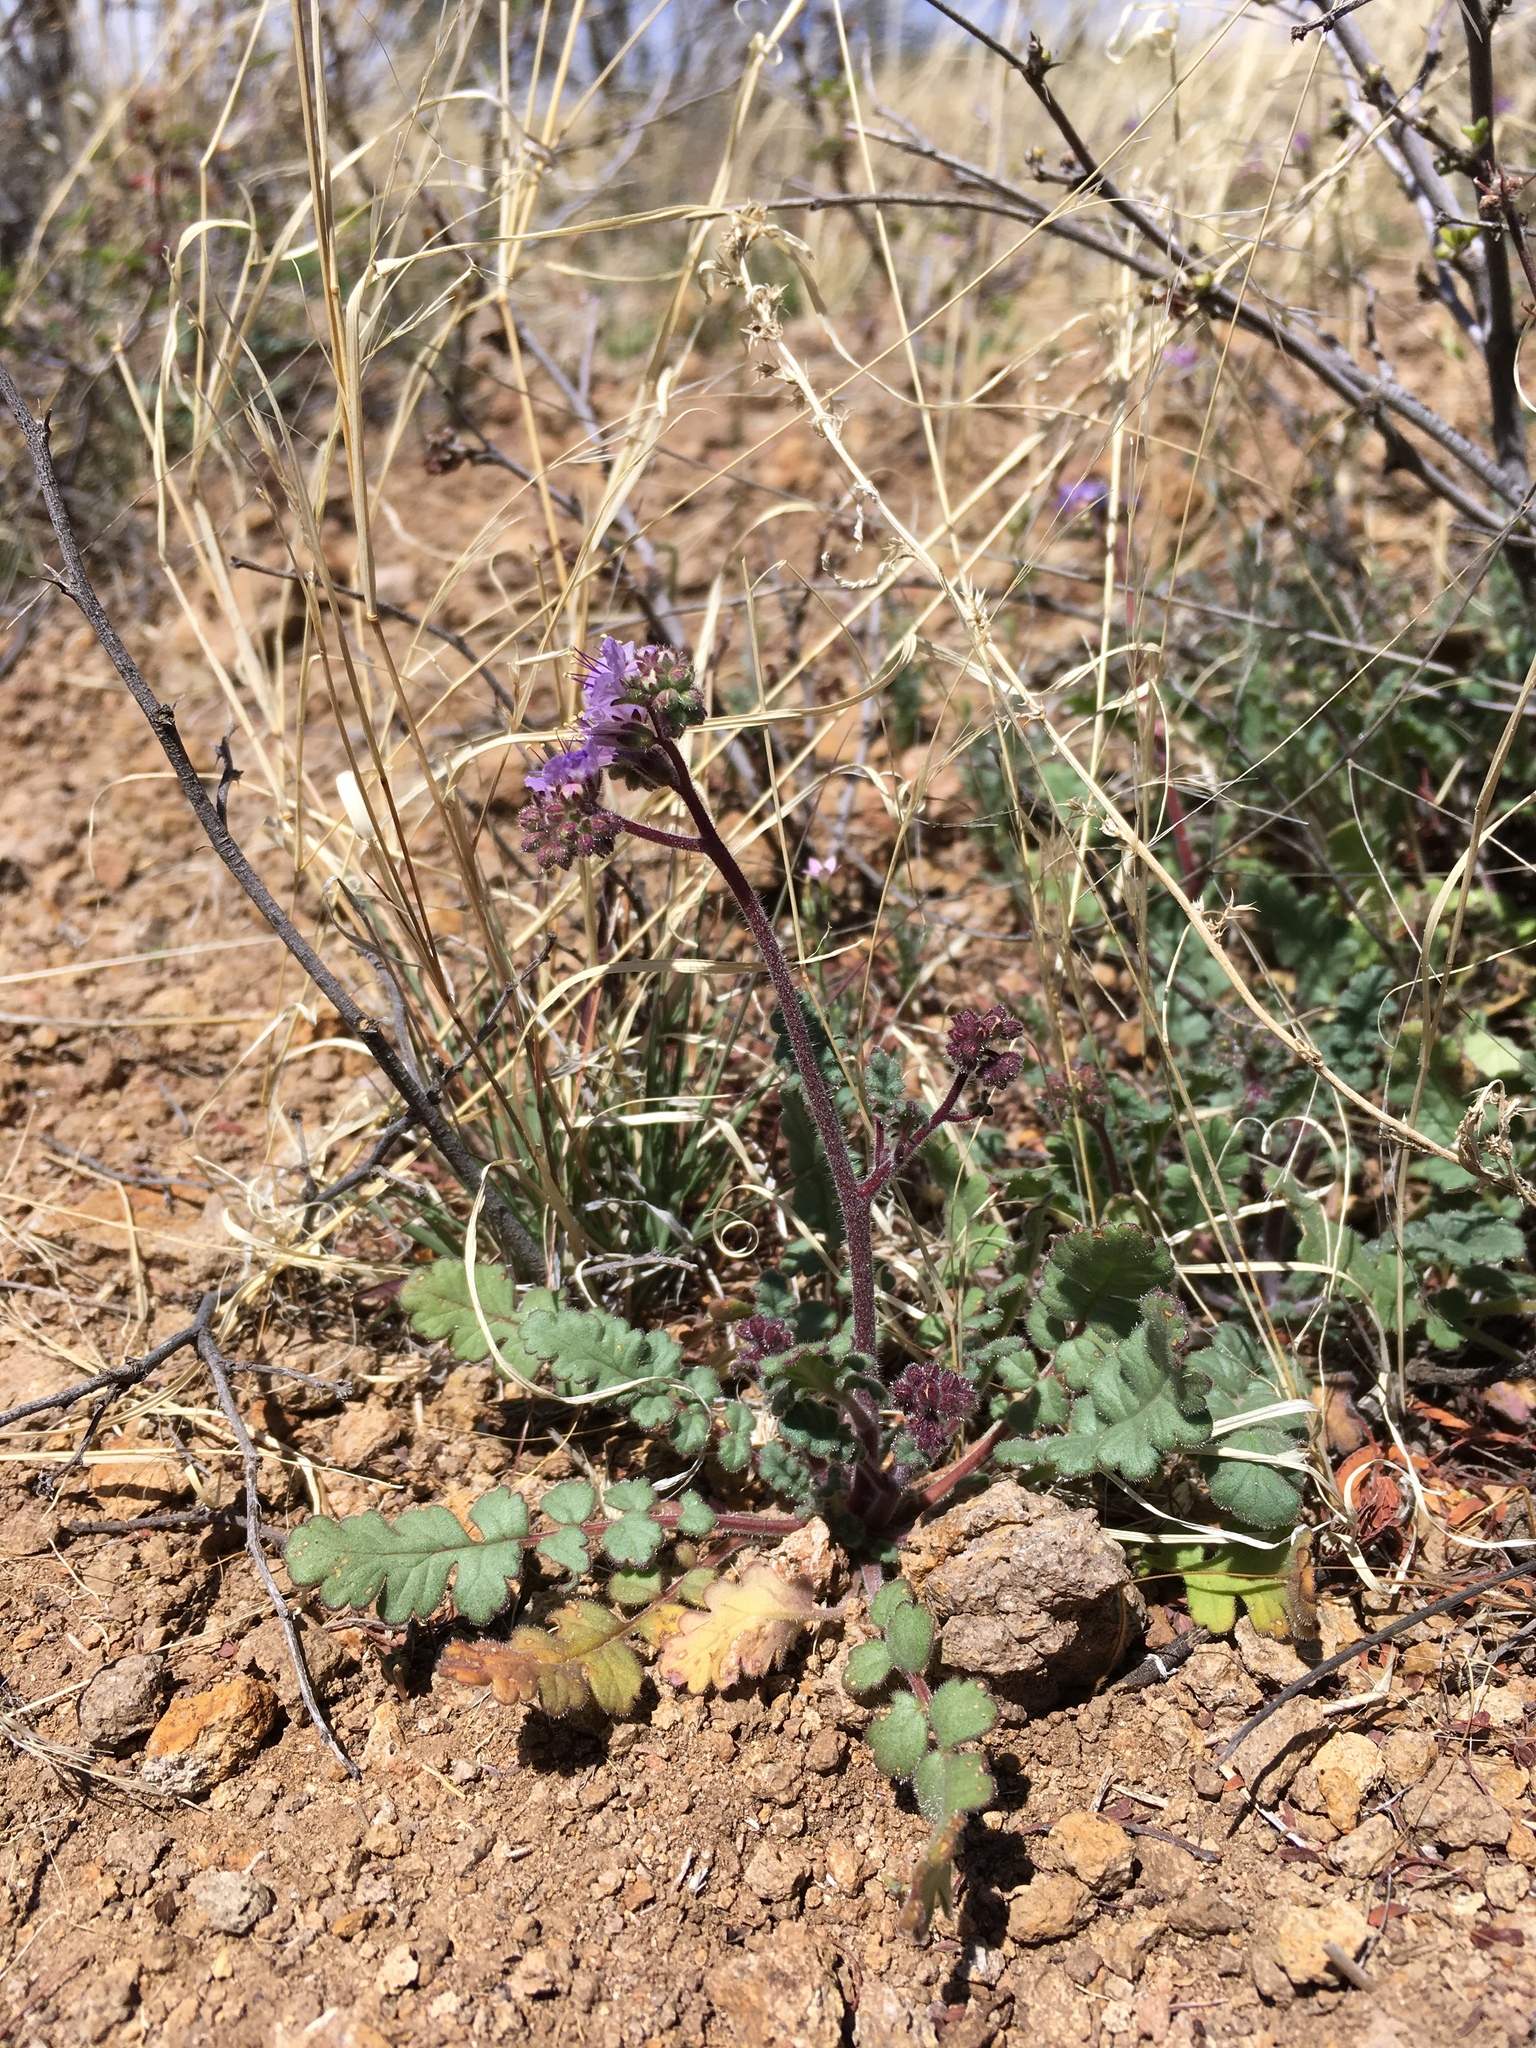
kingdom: Plantae
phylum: Tracheophyta
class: Magnoliopsida
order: Boraginales
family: Hydrophyllaceae
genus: Phacelia
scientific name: Phacelia bombycina
